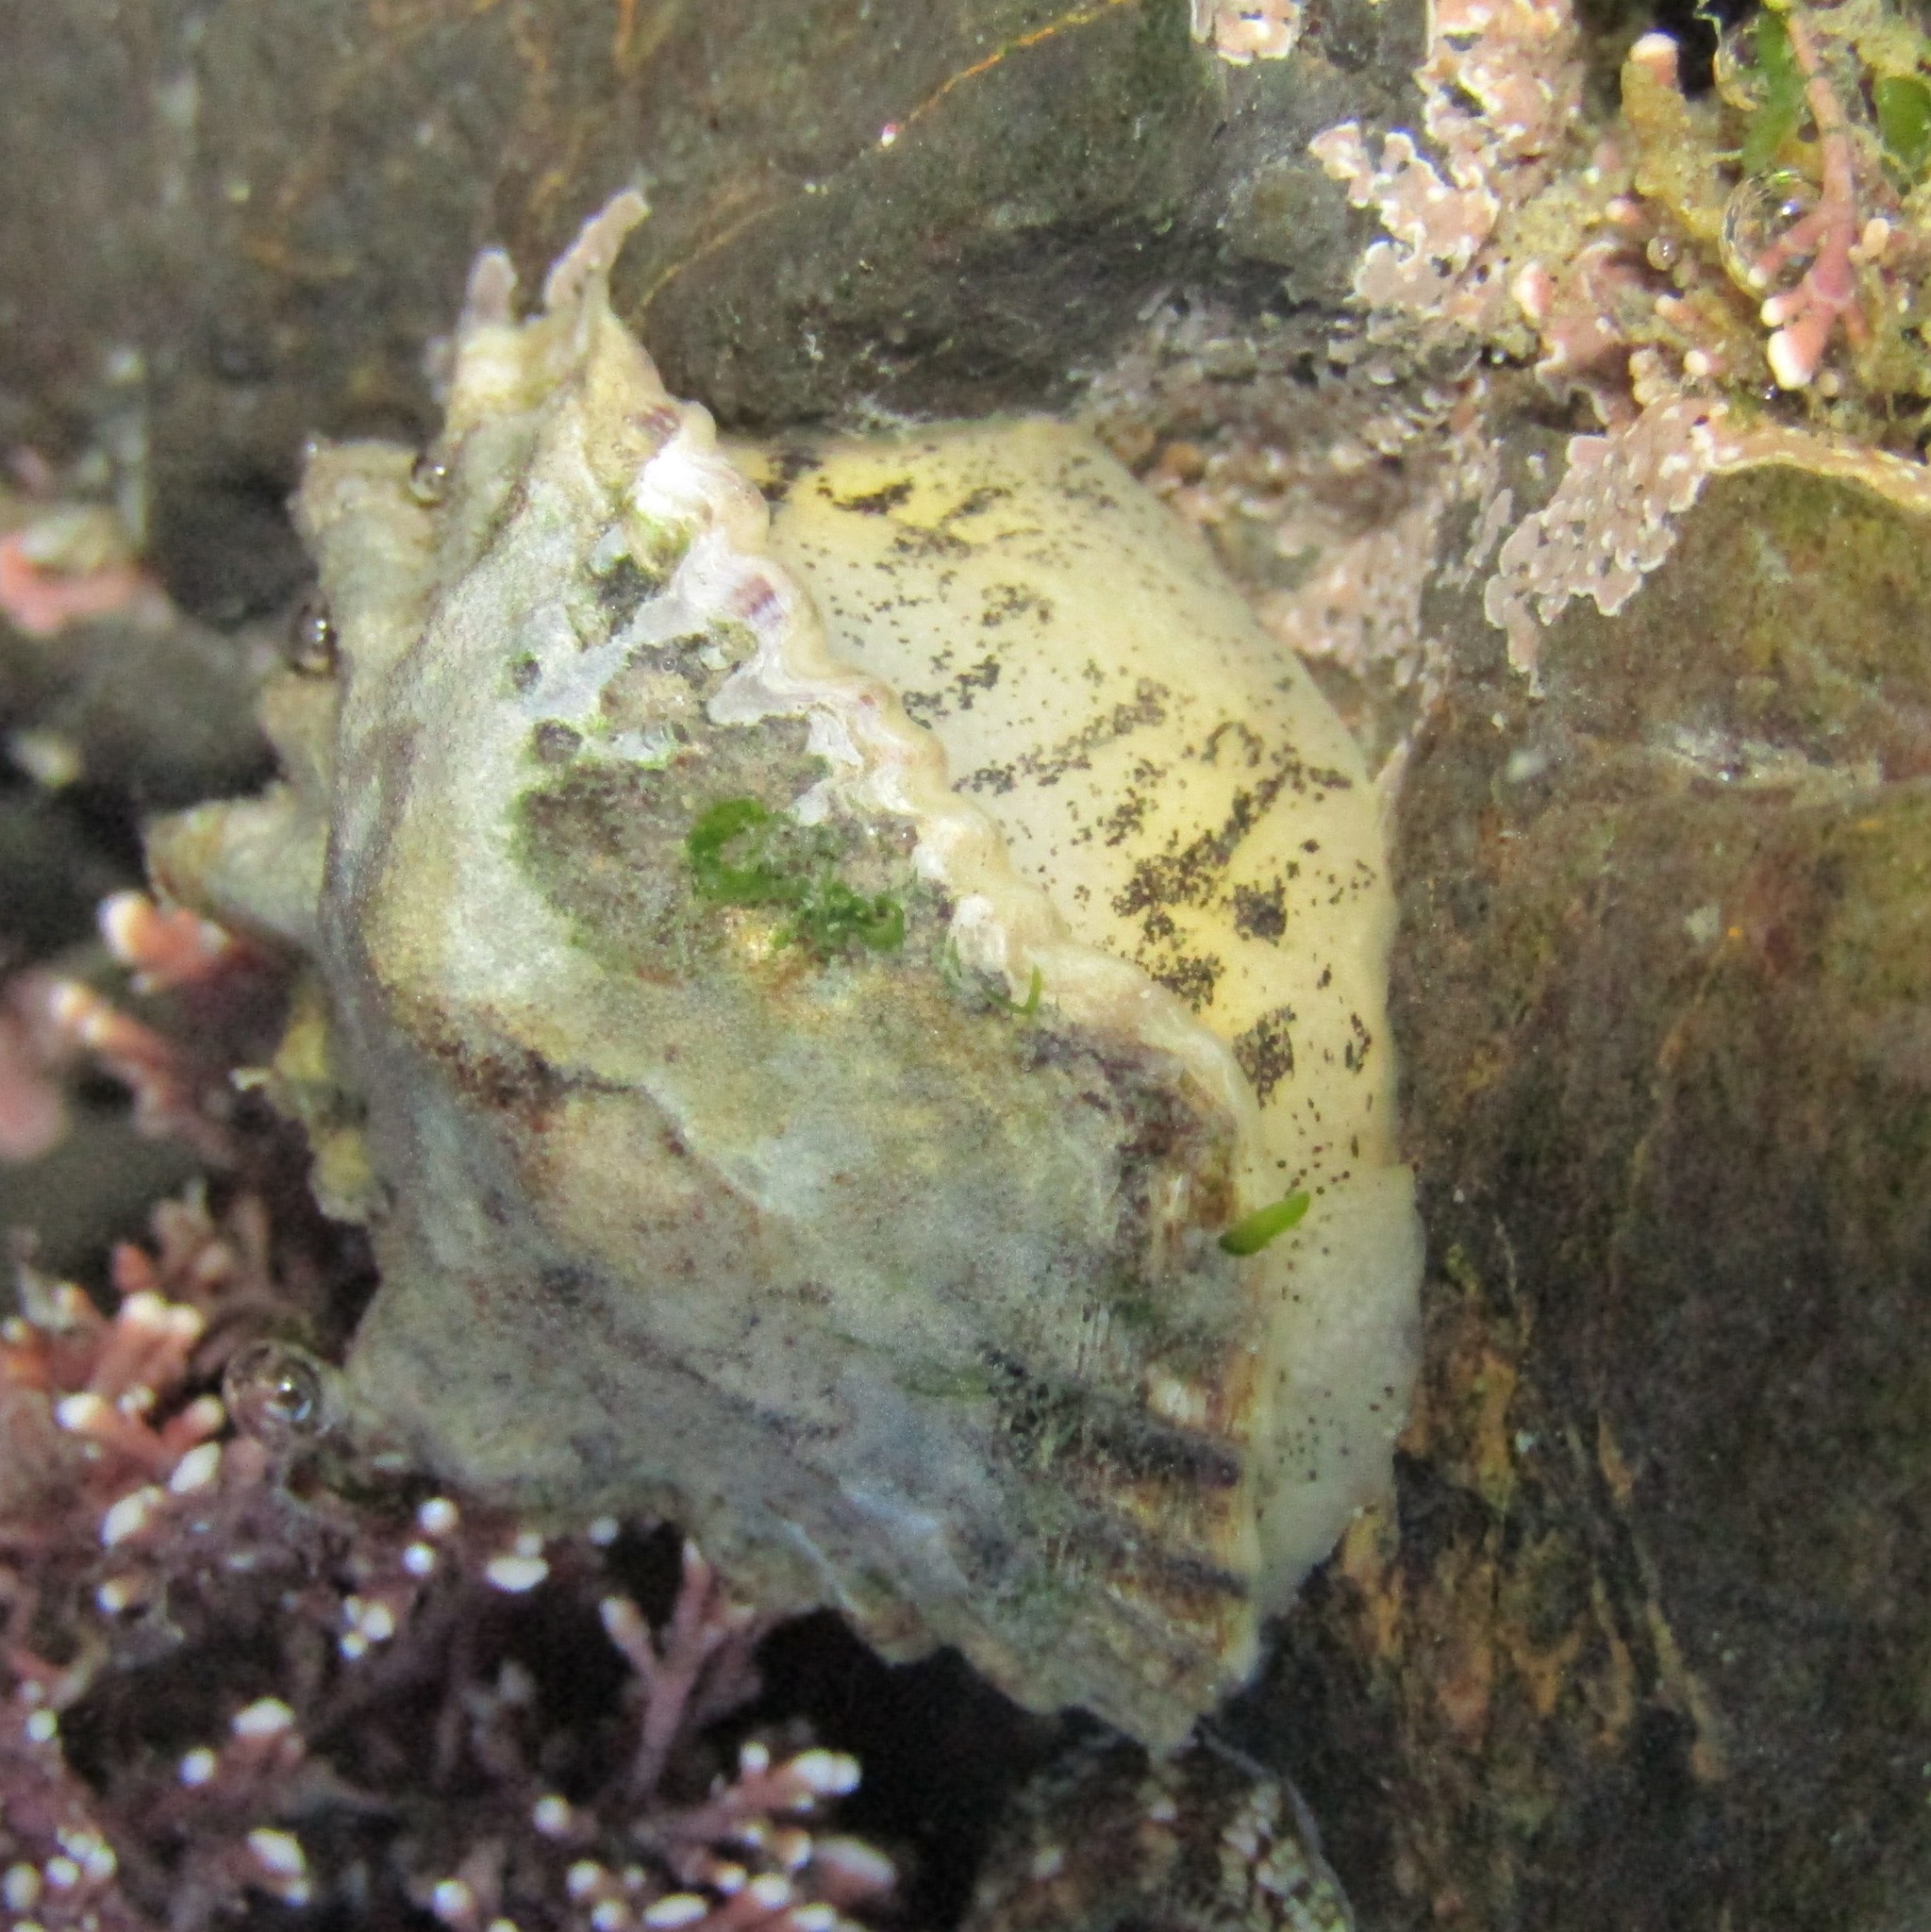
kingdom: Animalia
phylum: Mollusca
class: Gastropoda
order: Siphonariida
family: Siphonariidae
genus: Siphonaria
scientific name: Siphonaria australis
